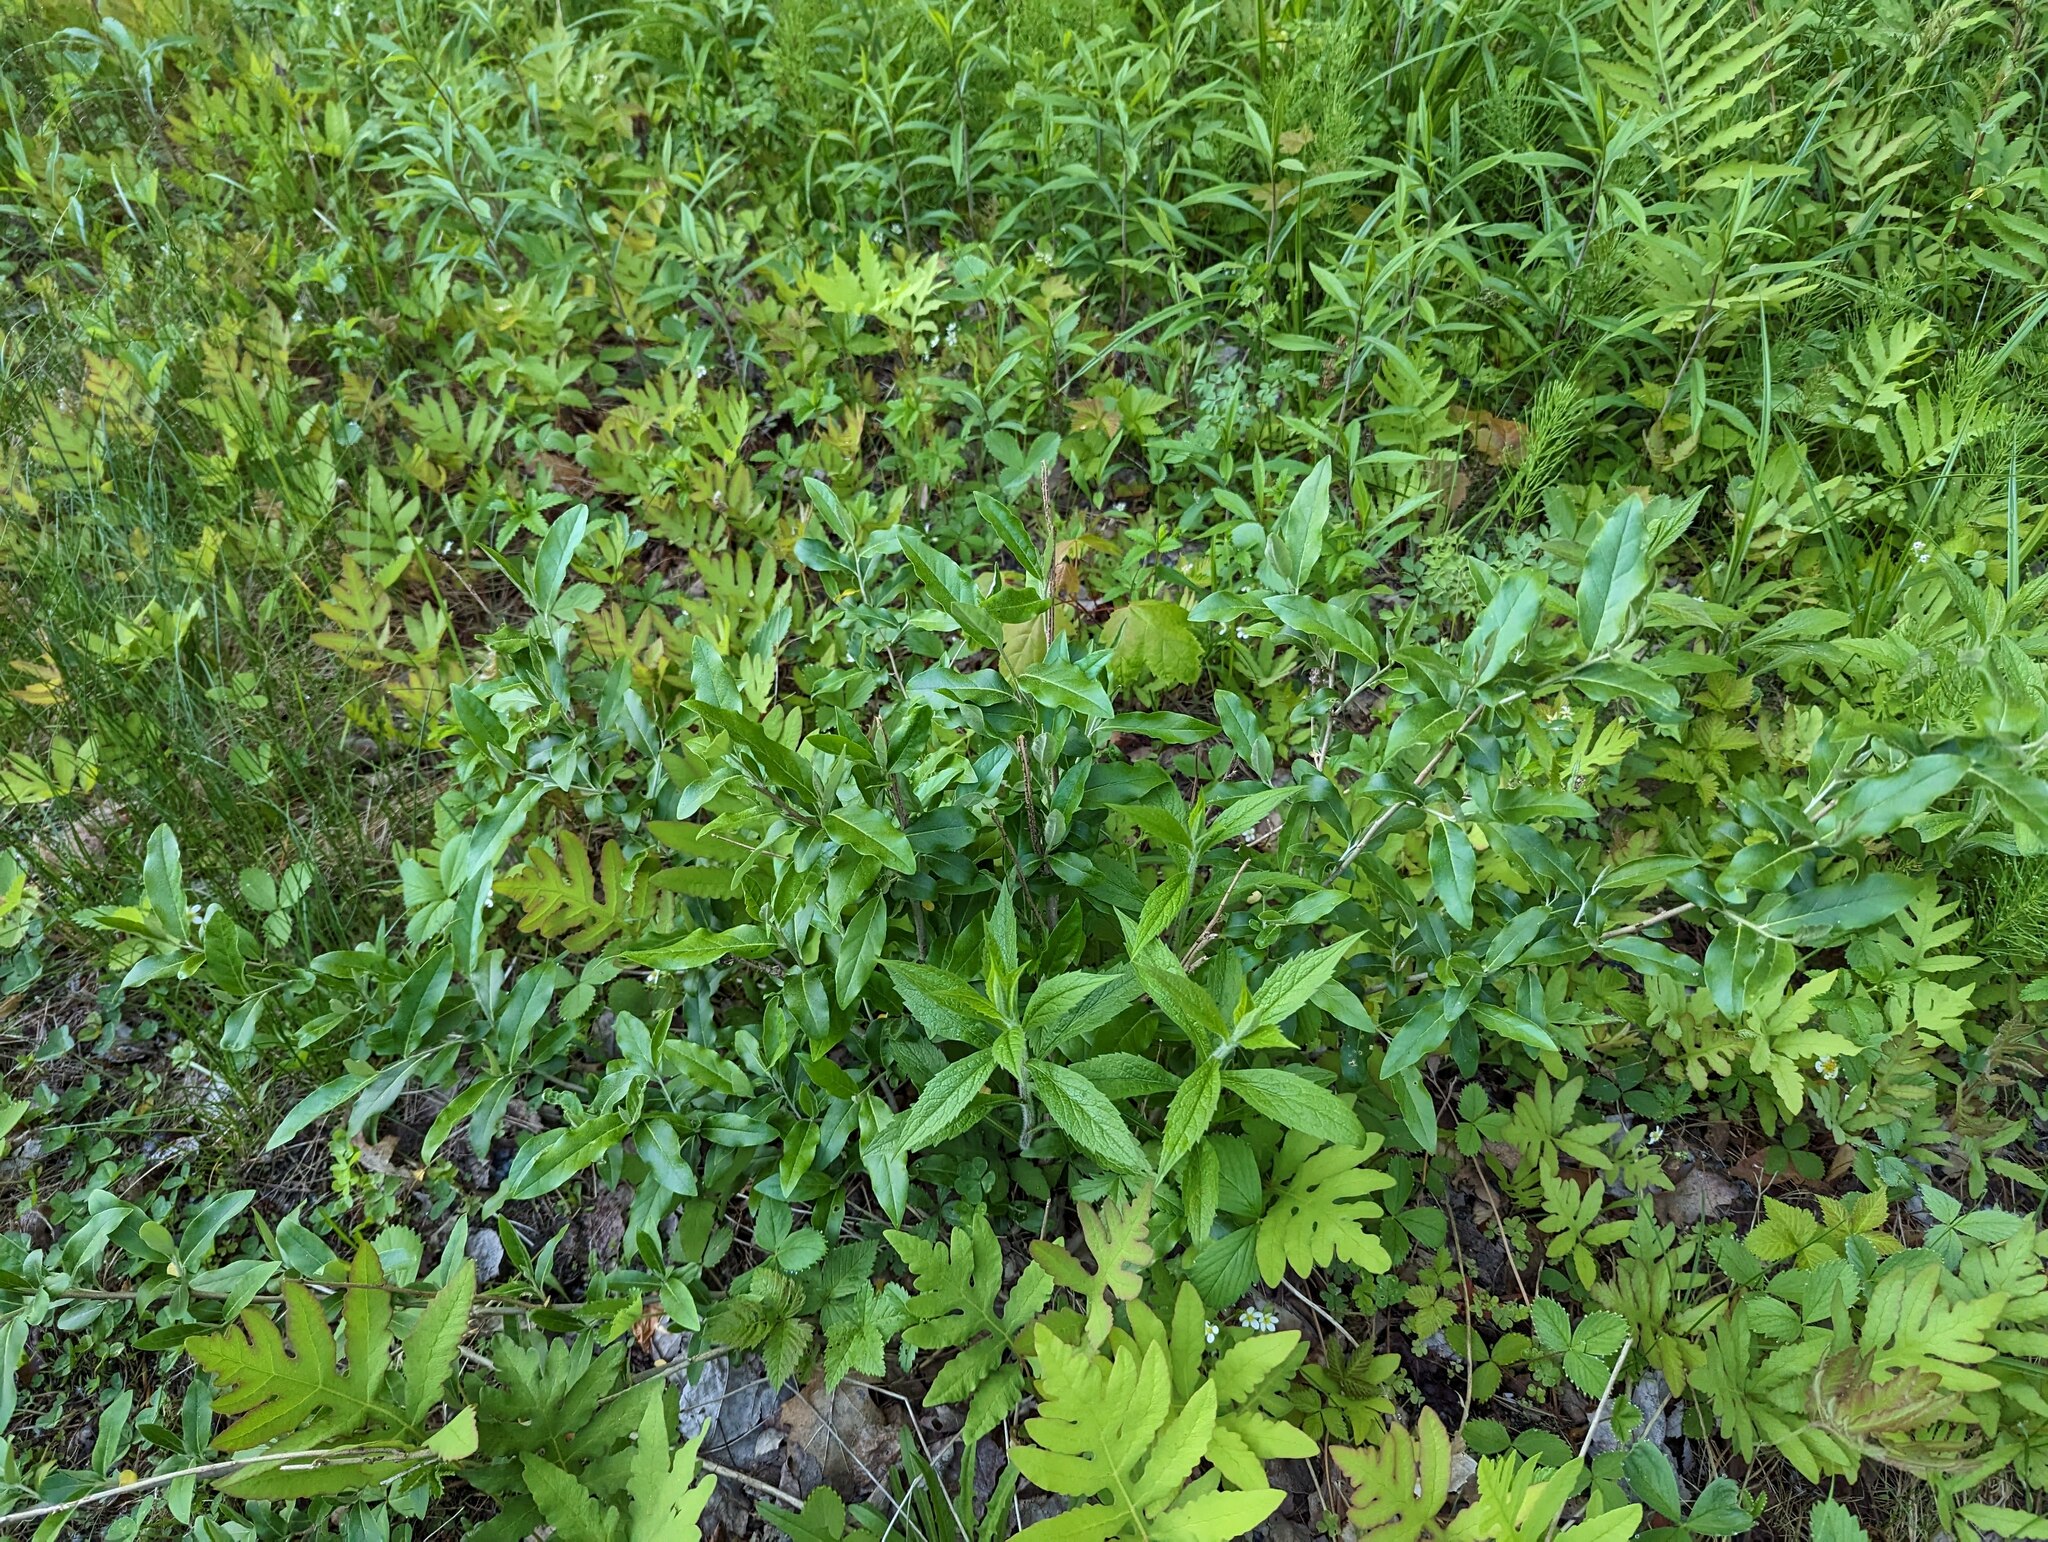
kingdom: Plantae
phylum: Tracheophyta
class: Magnoliopsida
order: Rosales
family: Elaeagnaceae
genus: Elaeagnus
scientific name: Elaeagnus umbellata
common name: Autumn olive
